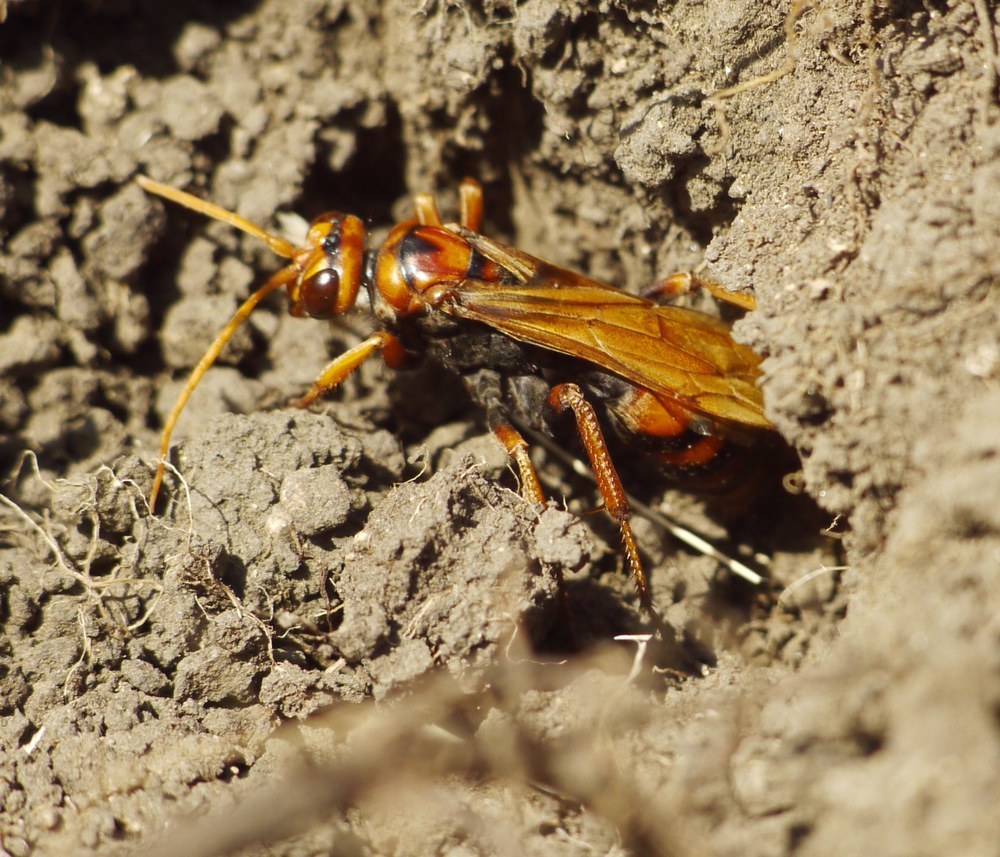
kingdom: Animalia
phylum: Arthropoda
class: Insecta
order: Hymenoptera
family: Pompilidae
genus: Cryptocheilus
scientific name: Cryptocheilus rubellus
